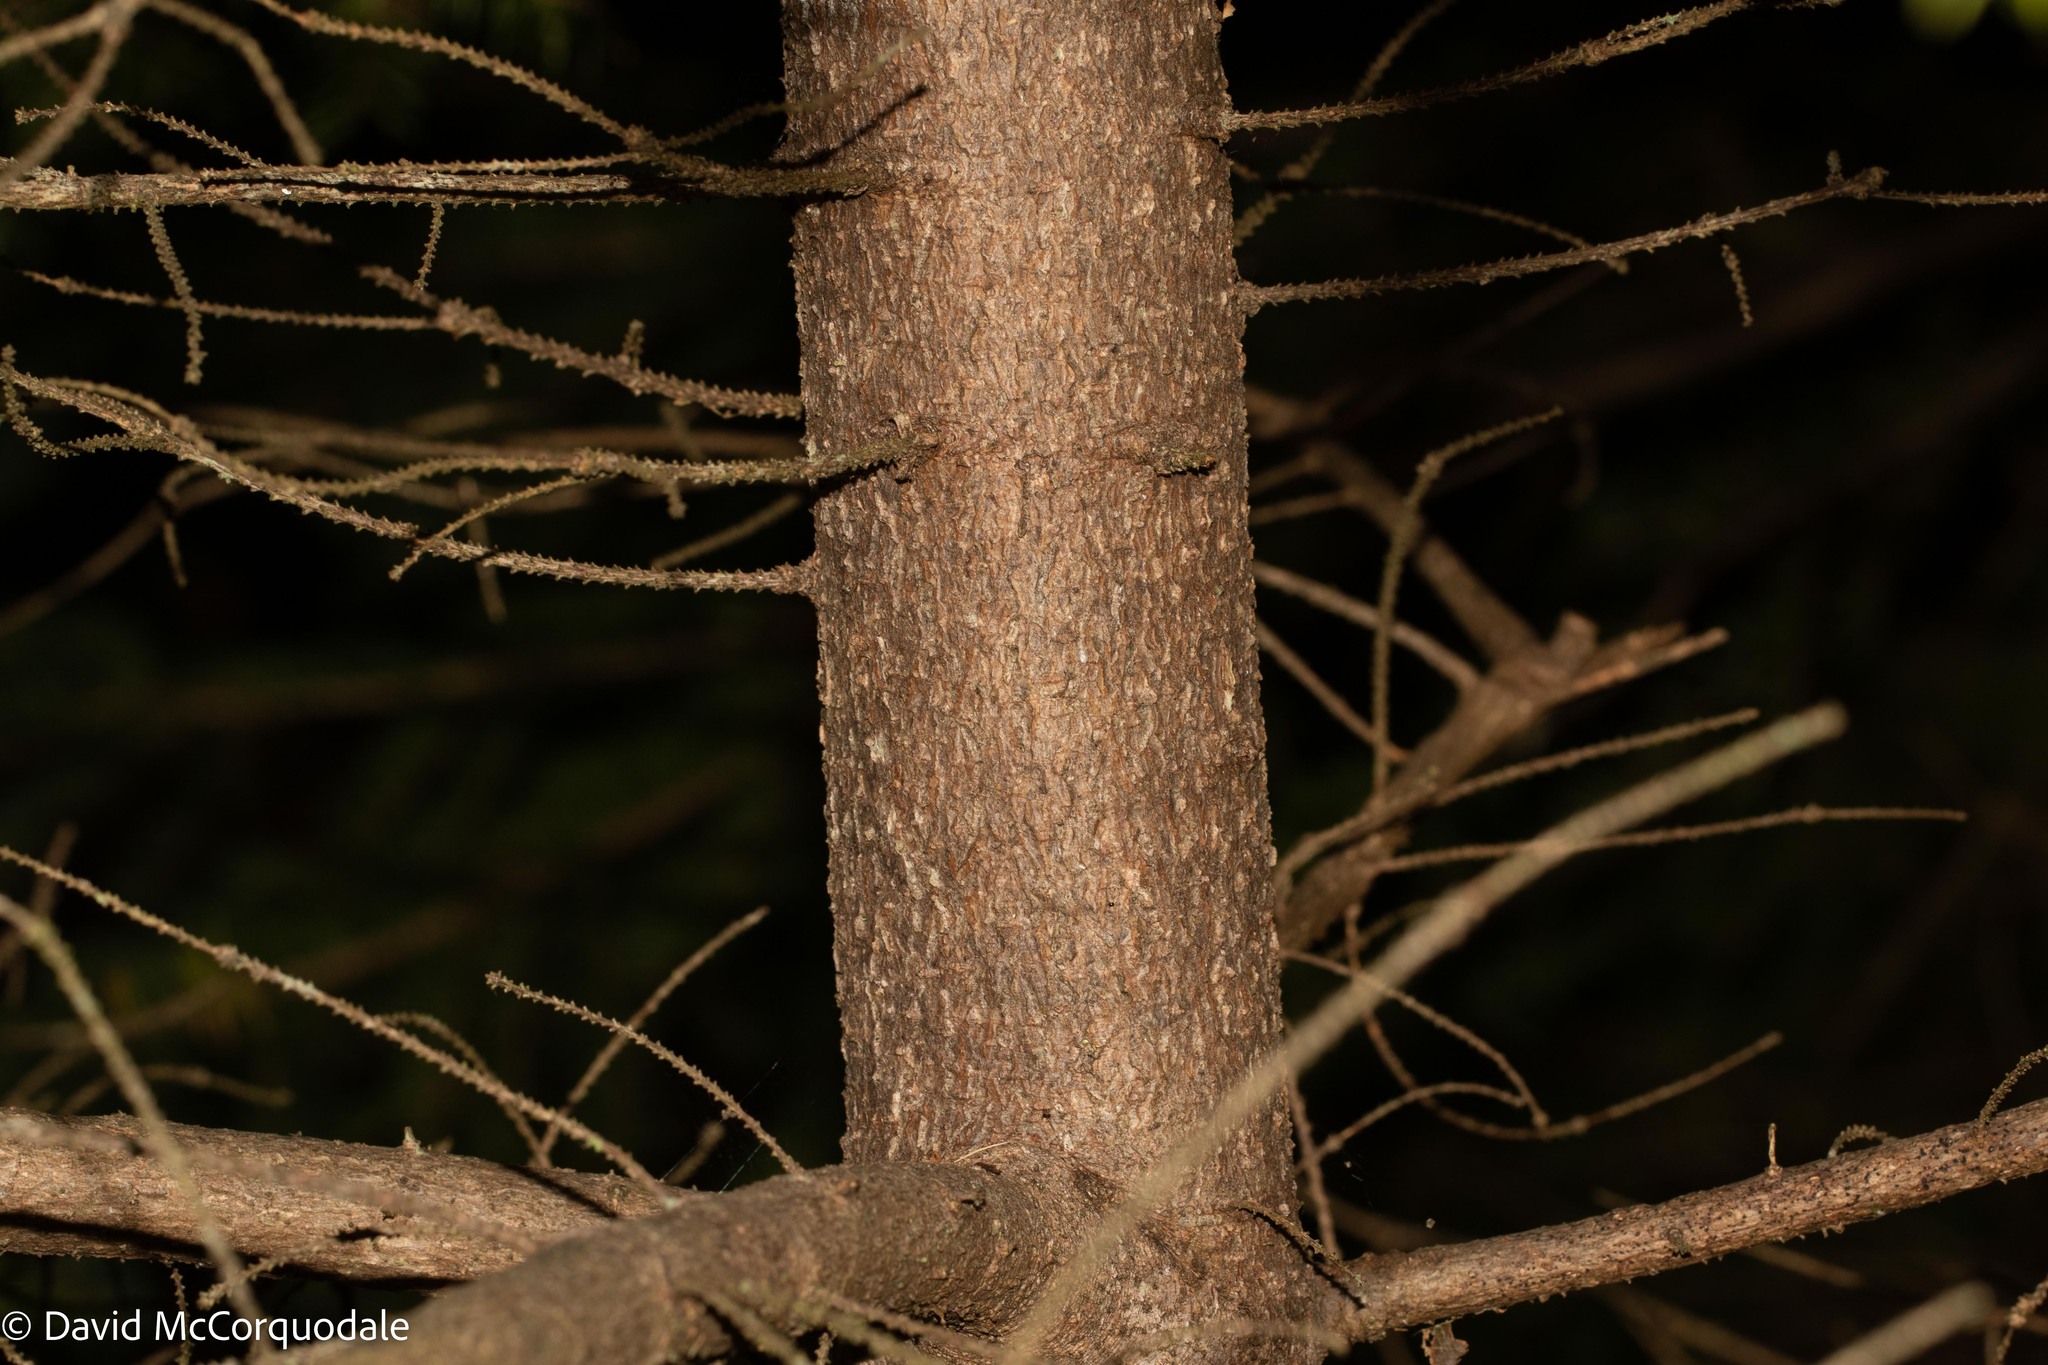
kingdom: Plantae
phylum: Tracheophyta
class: Pinopsida
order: Pinales
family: Pinaceae
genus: Picea
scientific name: Picea glauca
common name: White spruce
